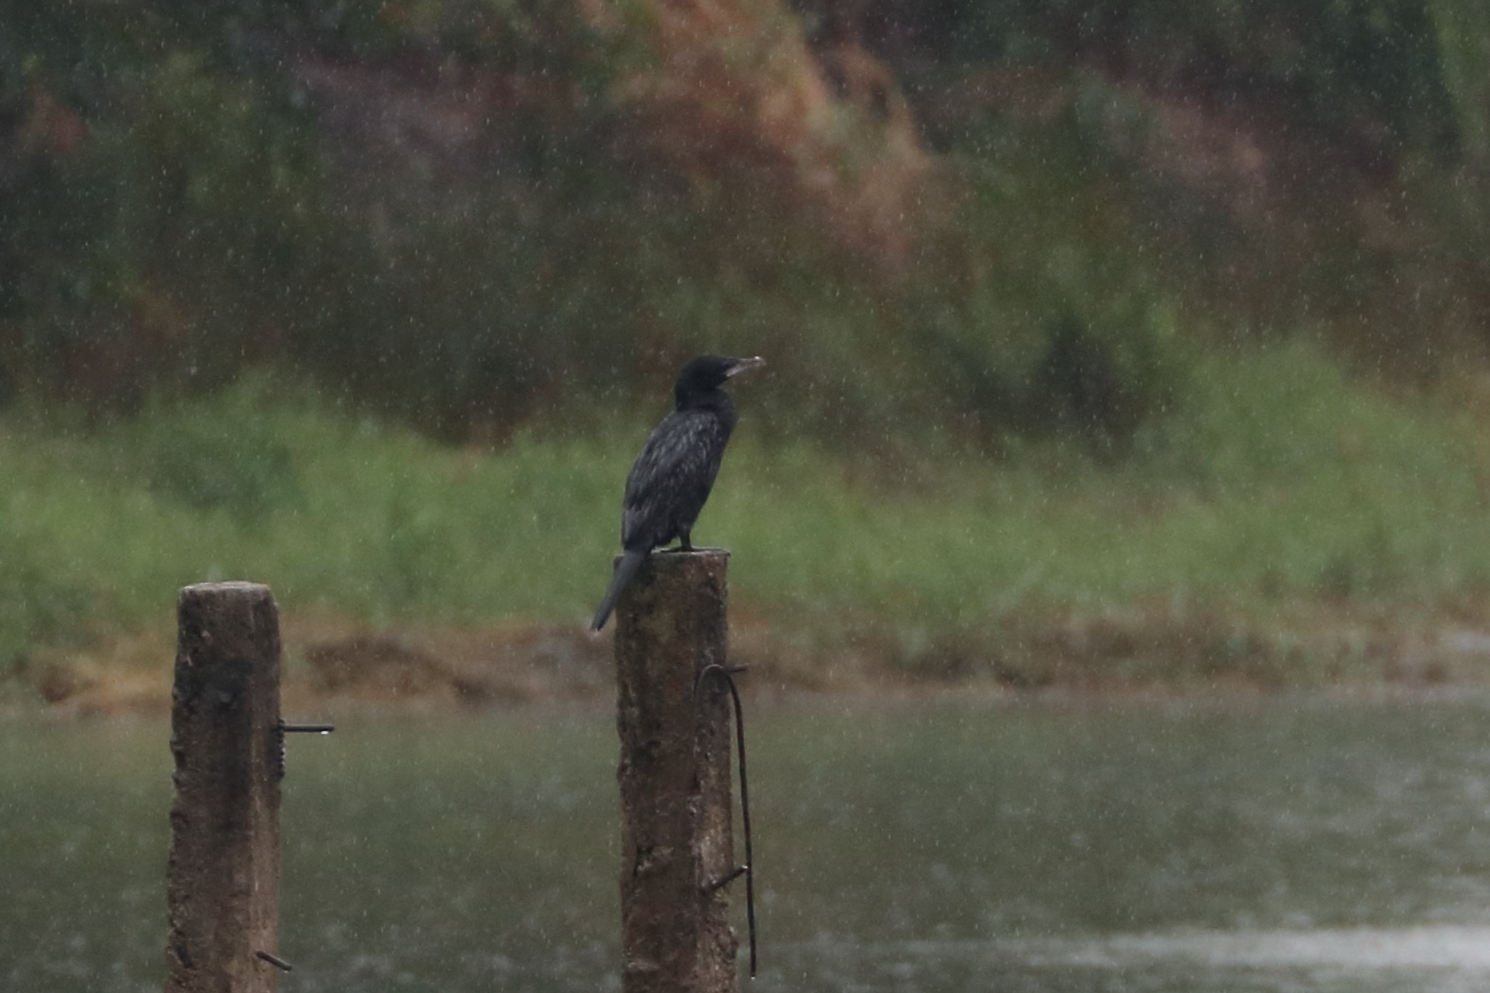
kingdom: Animalia
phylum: Chordata
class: Aves
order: Suliformes
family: Phalacrocoracidae
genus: Microcarbo
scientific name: Microcarbo niger
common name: Little cormorant
